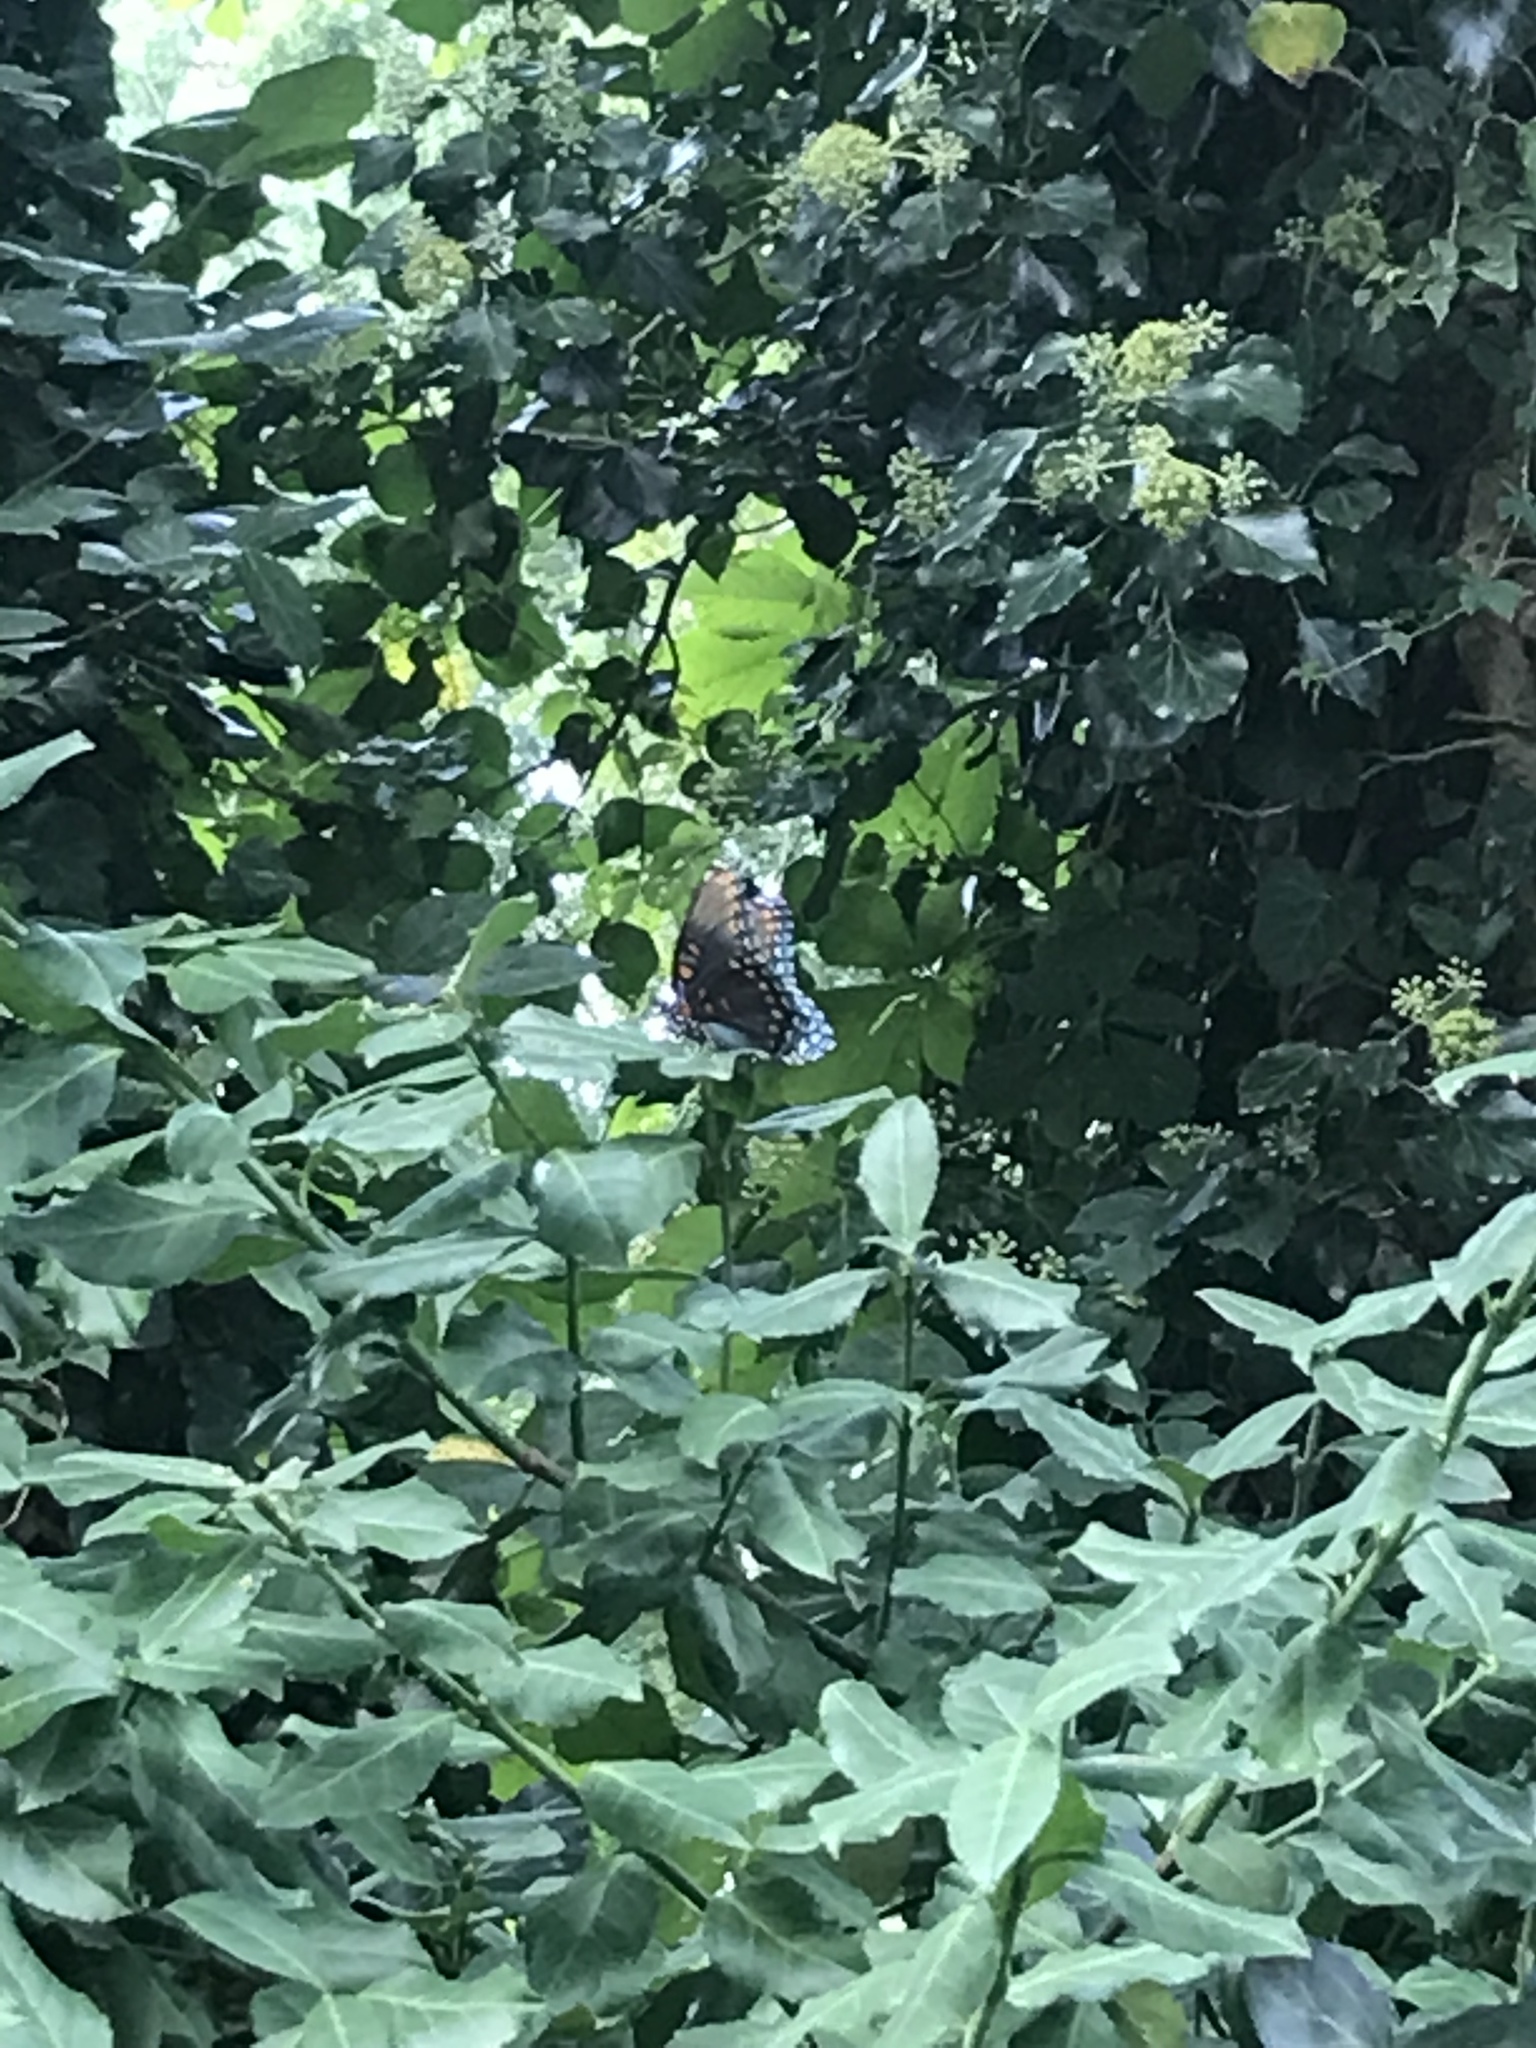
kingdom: Animalia
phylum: Arthropoda
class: Insecta
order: Lepidoptera
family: Nymphalidae
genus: Limenitis
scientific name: Limenitis astyanax
